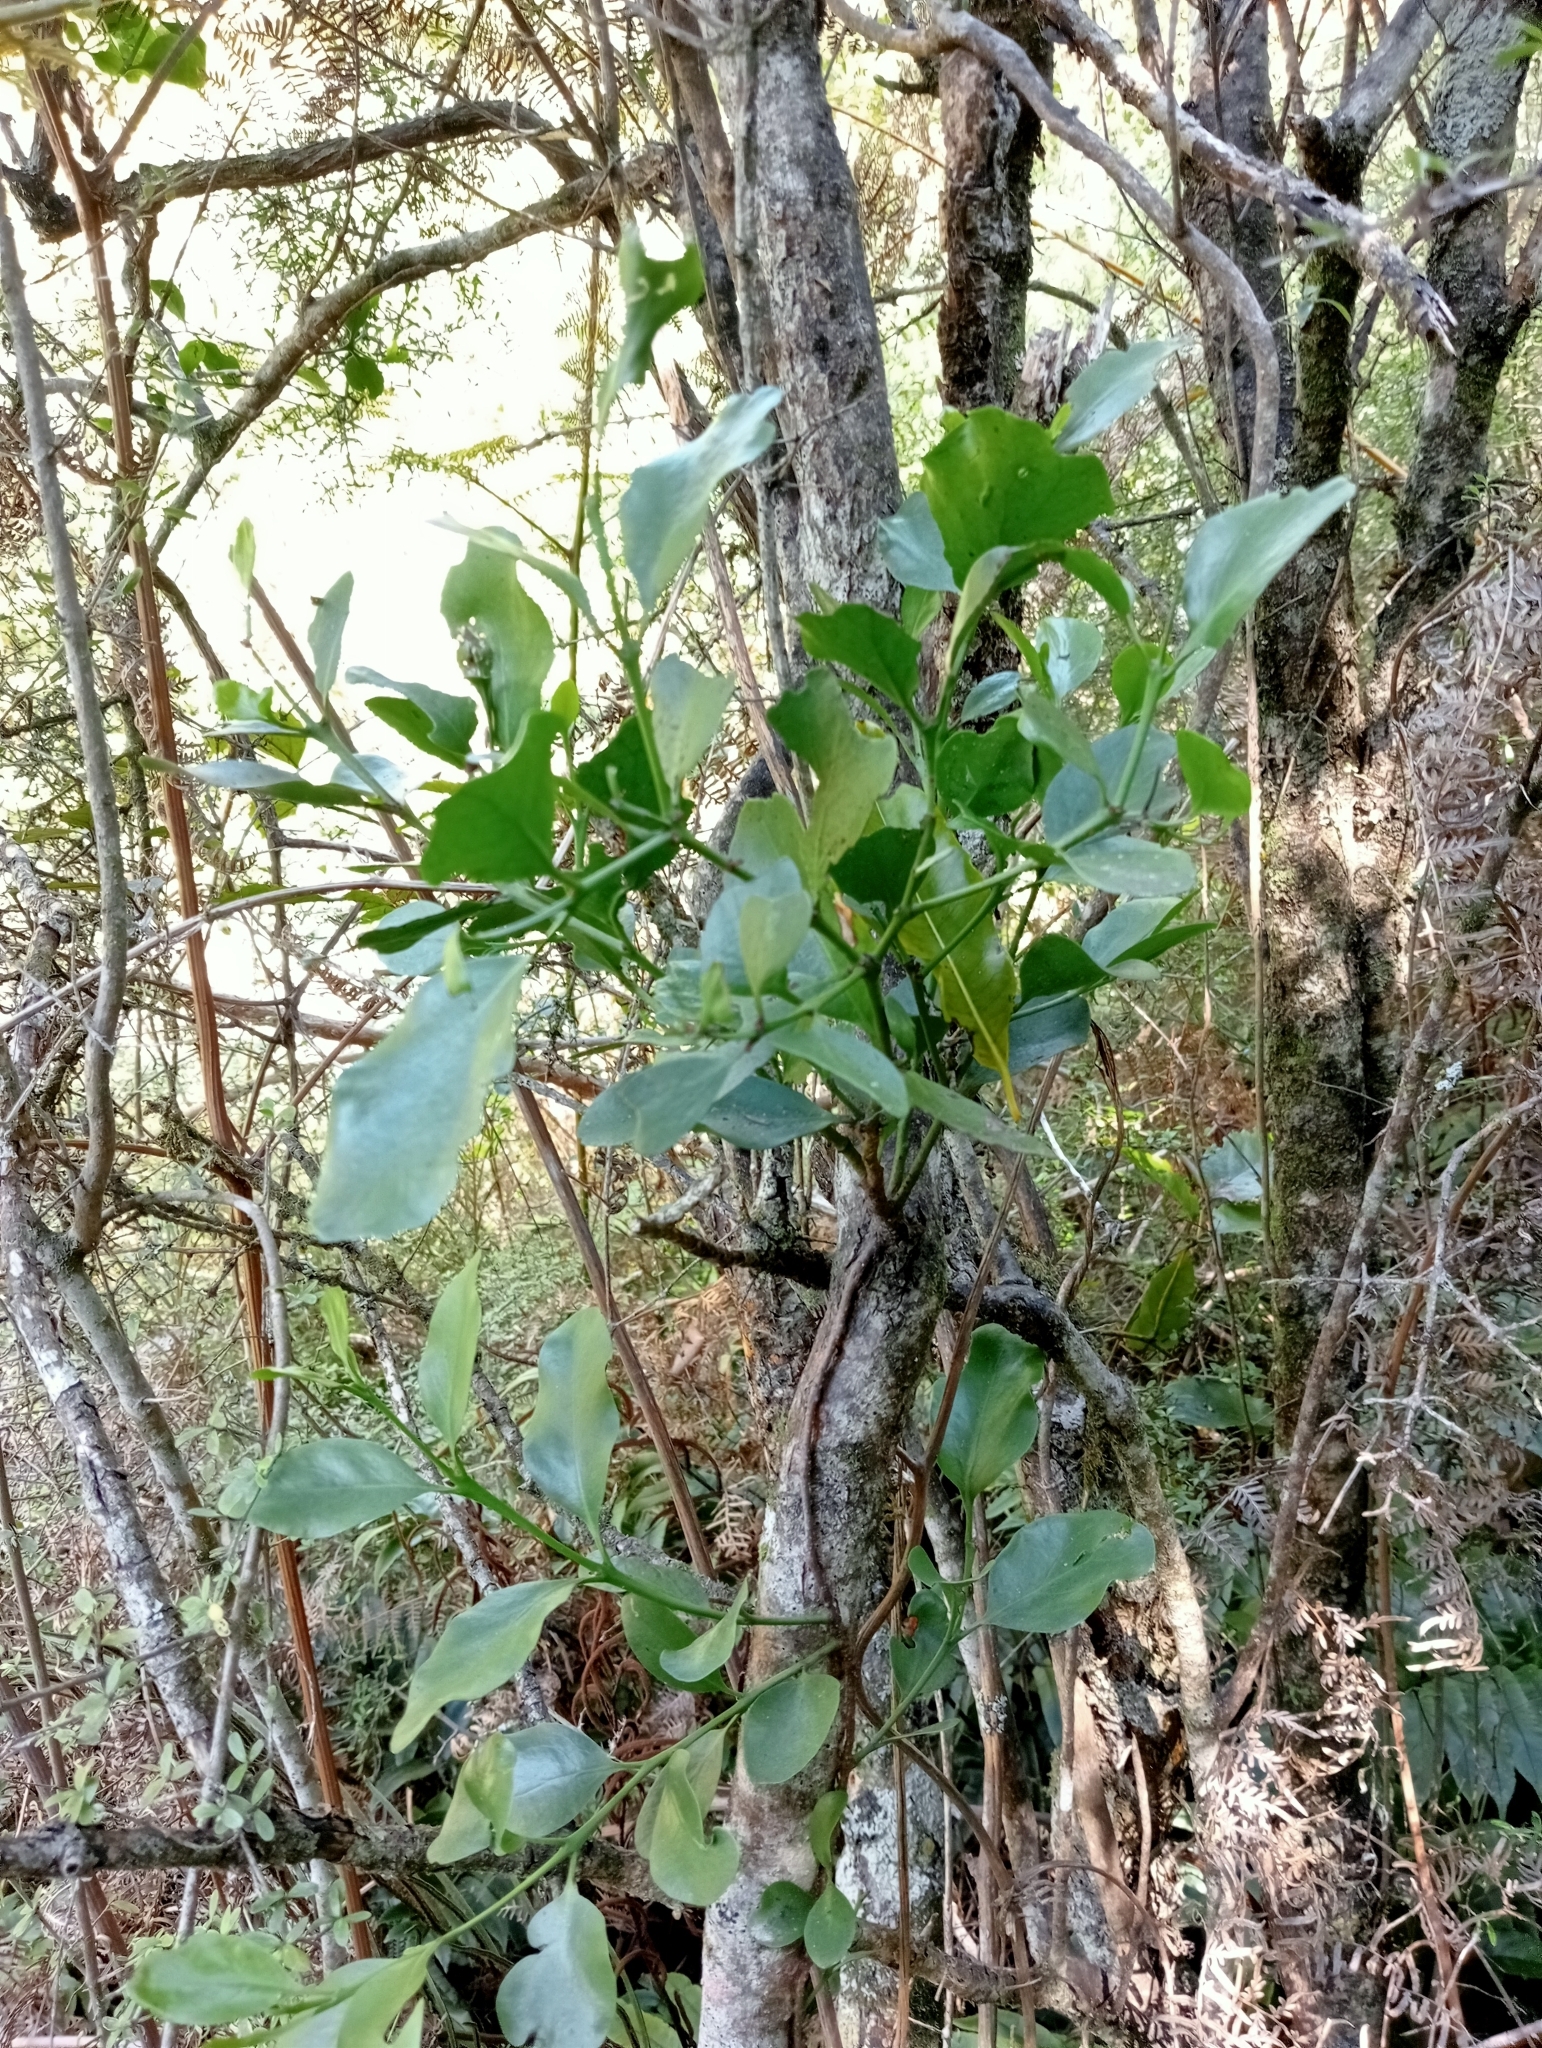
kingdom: Plantae
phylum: Tracheophyta
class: Magnoliopsida
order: Santalales
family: Loranthaceae
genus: Ileostylus
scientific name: Ileostylus micranthus
